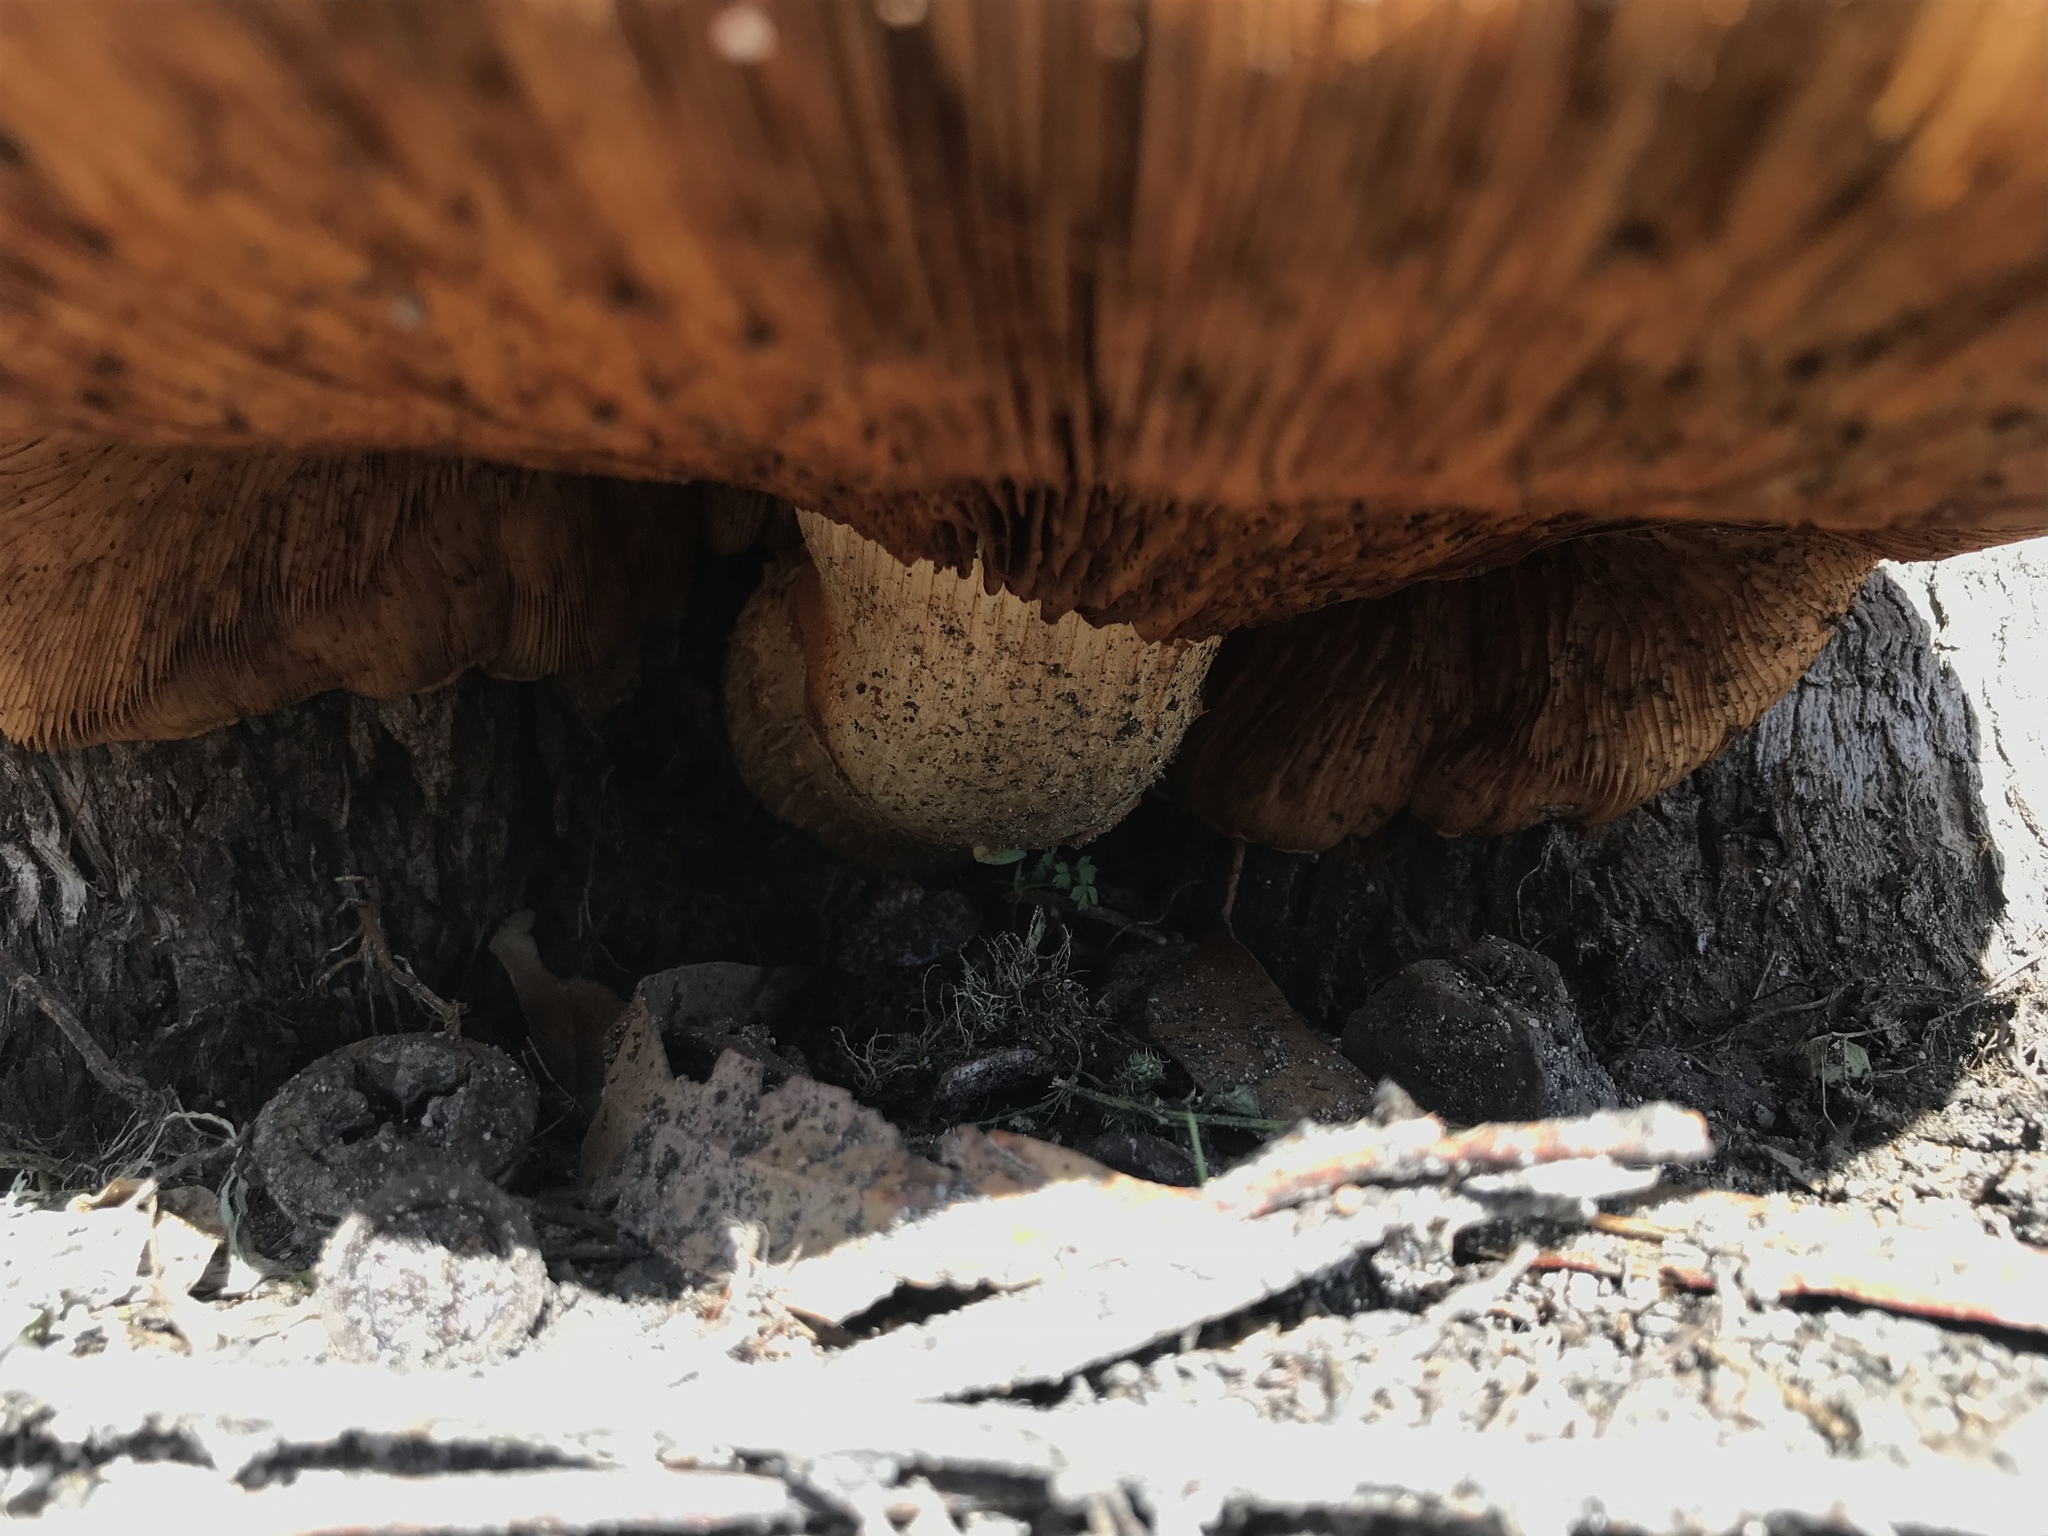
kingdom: Fungi
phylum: Basidiomycota
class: Agaricomycetes
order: Agaricales
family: Hymenogastraceae
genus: Gymnopilus
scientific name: Gymnopilus ventricosus
